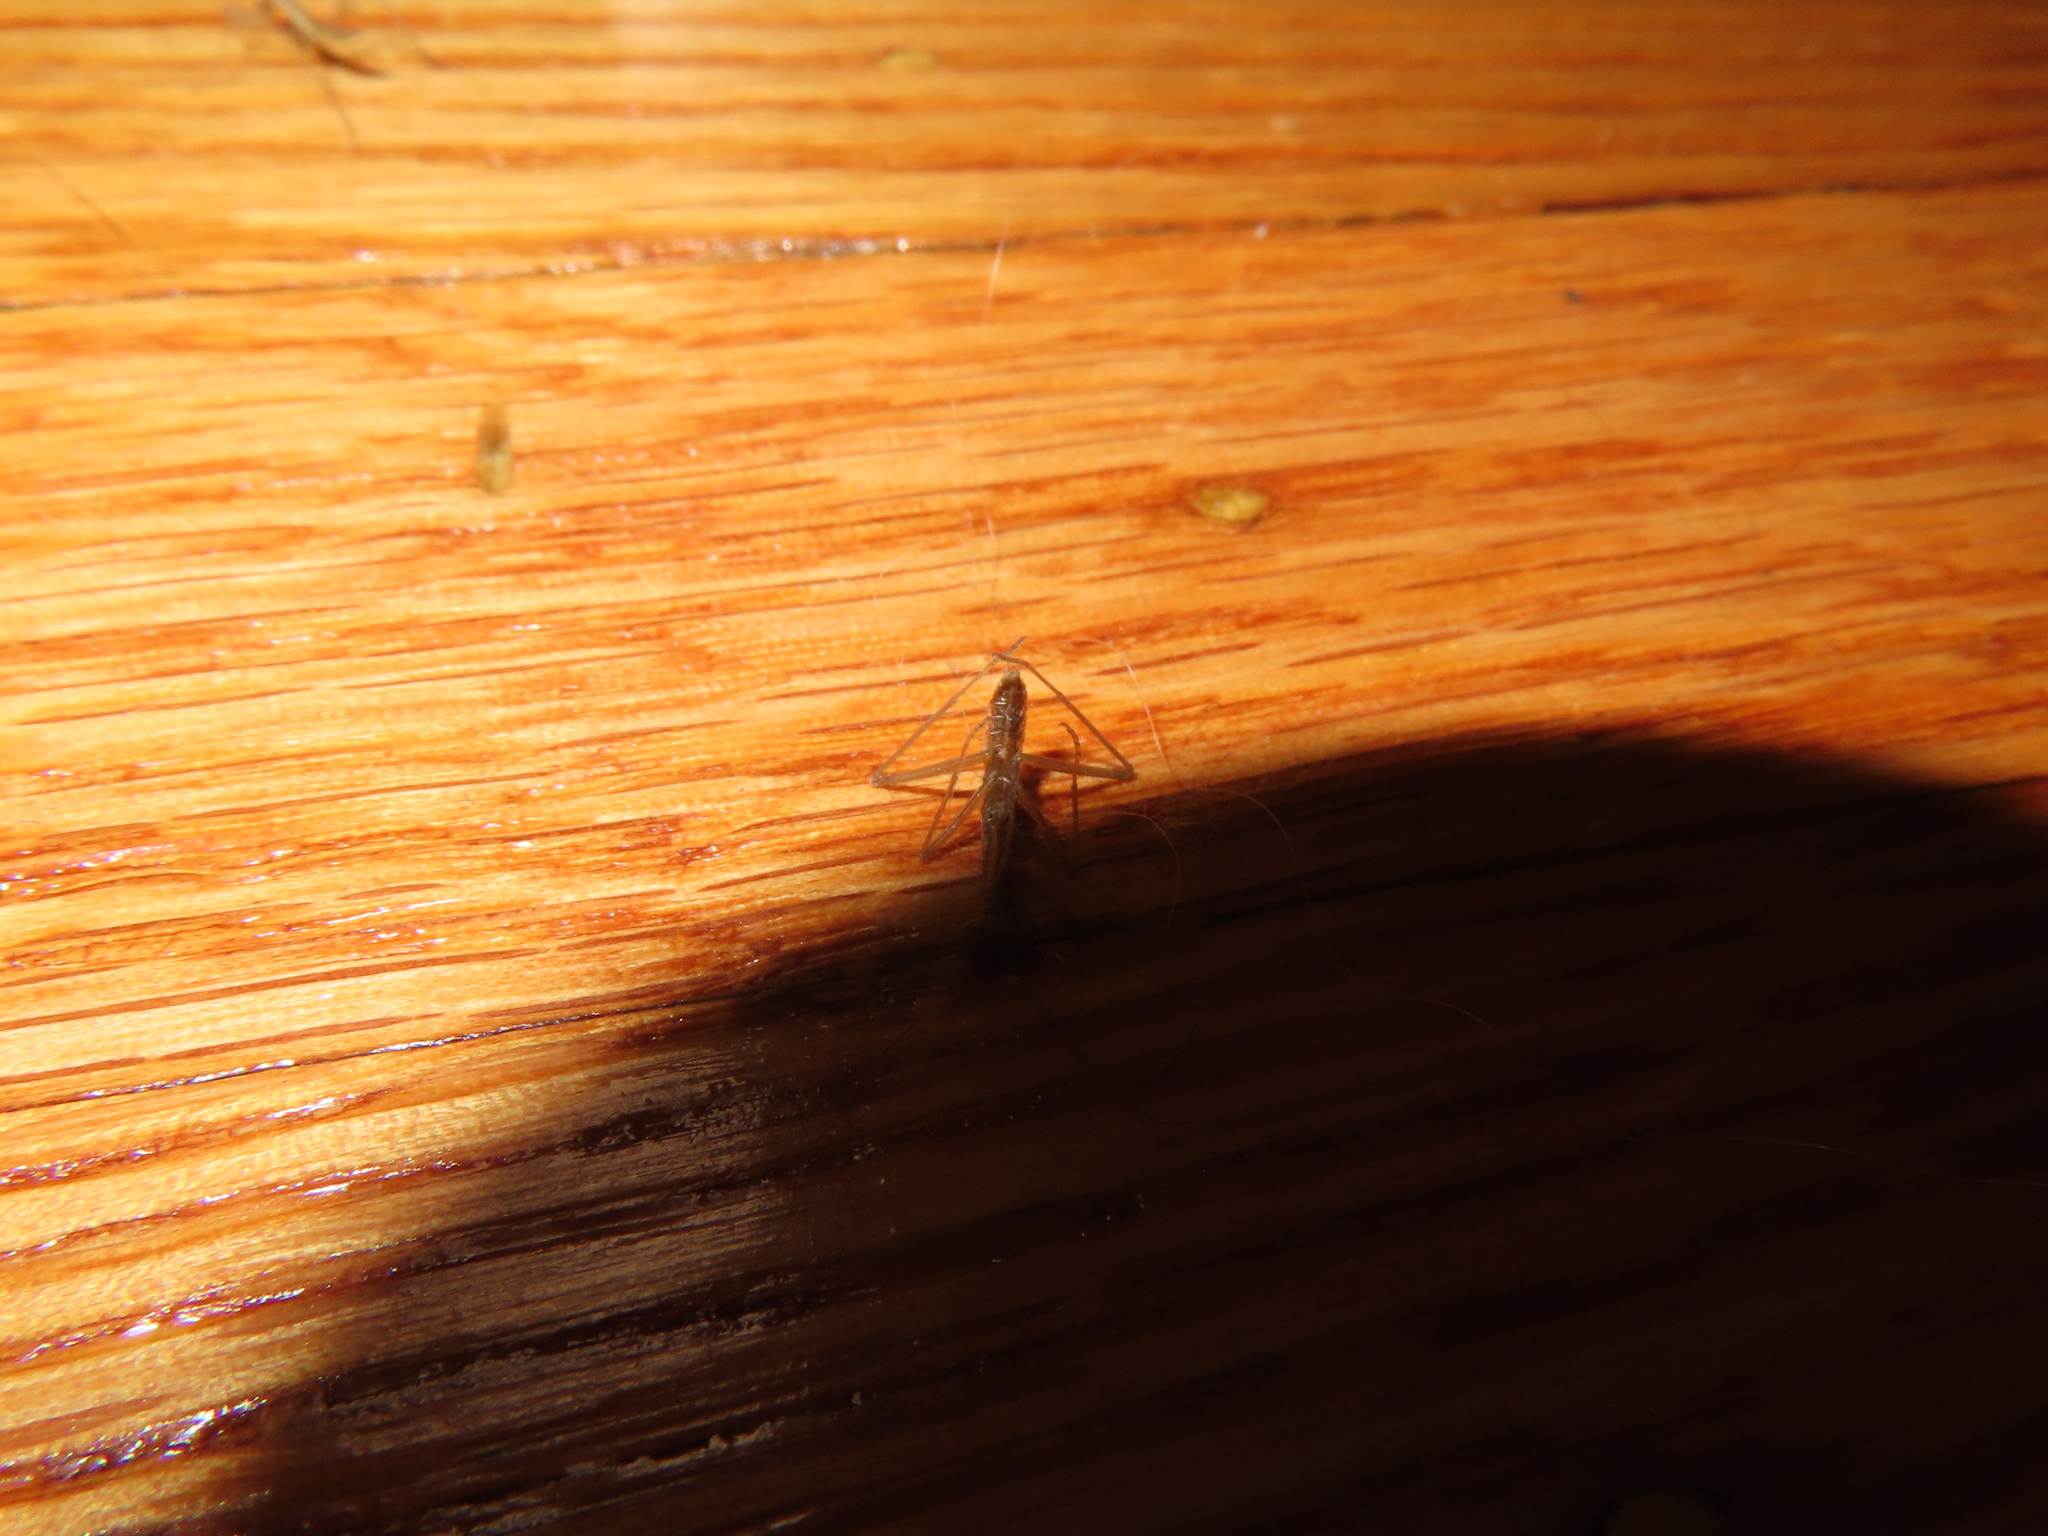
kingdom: Animalia
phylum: Arthropoda
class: Insecta
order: Mantodea
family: Mantidae
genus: Tenodera
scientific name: Tenodera sinensis
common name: Chinese mantis
